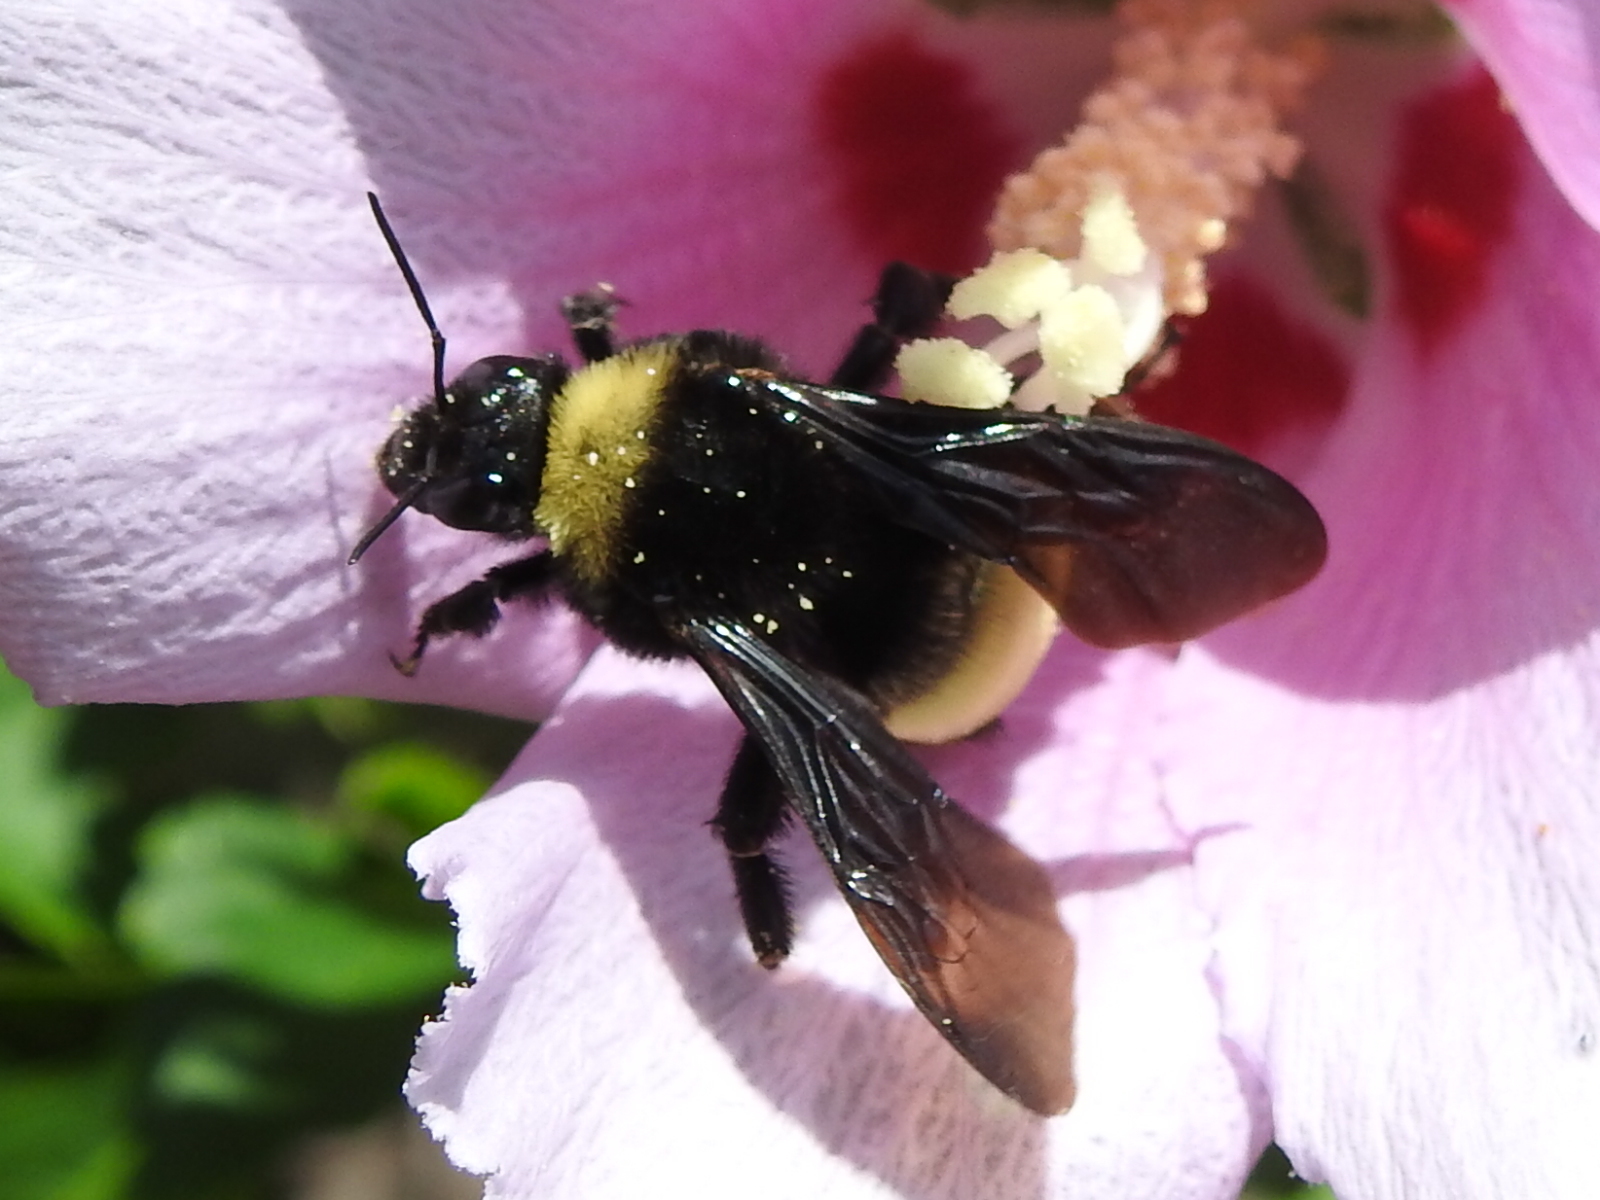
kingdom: Animalia
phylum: Arthropoda
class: Insecta
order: Hymenoptera
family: Apidae
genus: Bombus
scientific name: Bombus pensylvanicus
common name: Bumble bee
